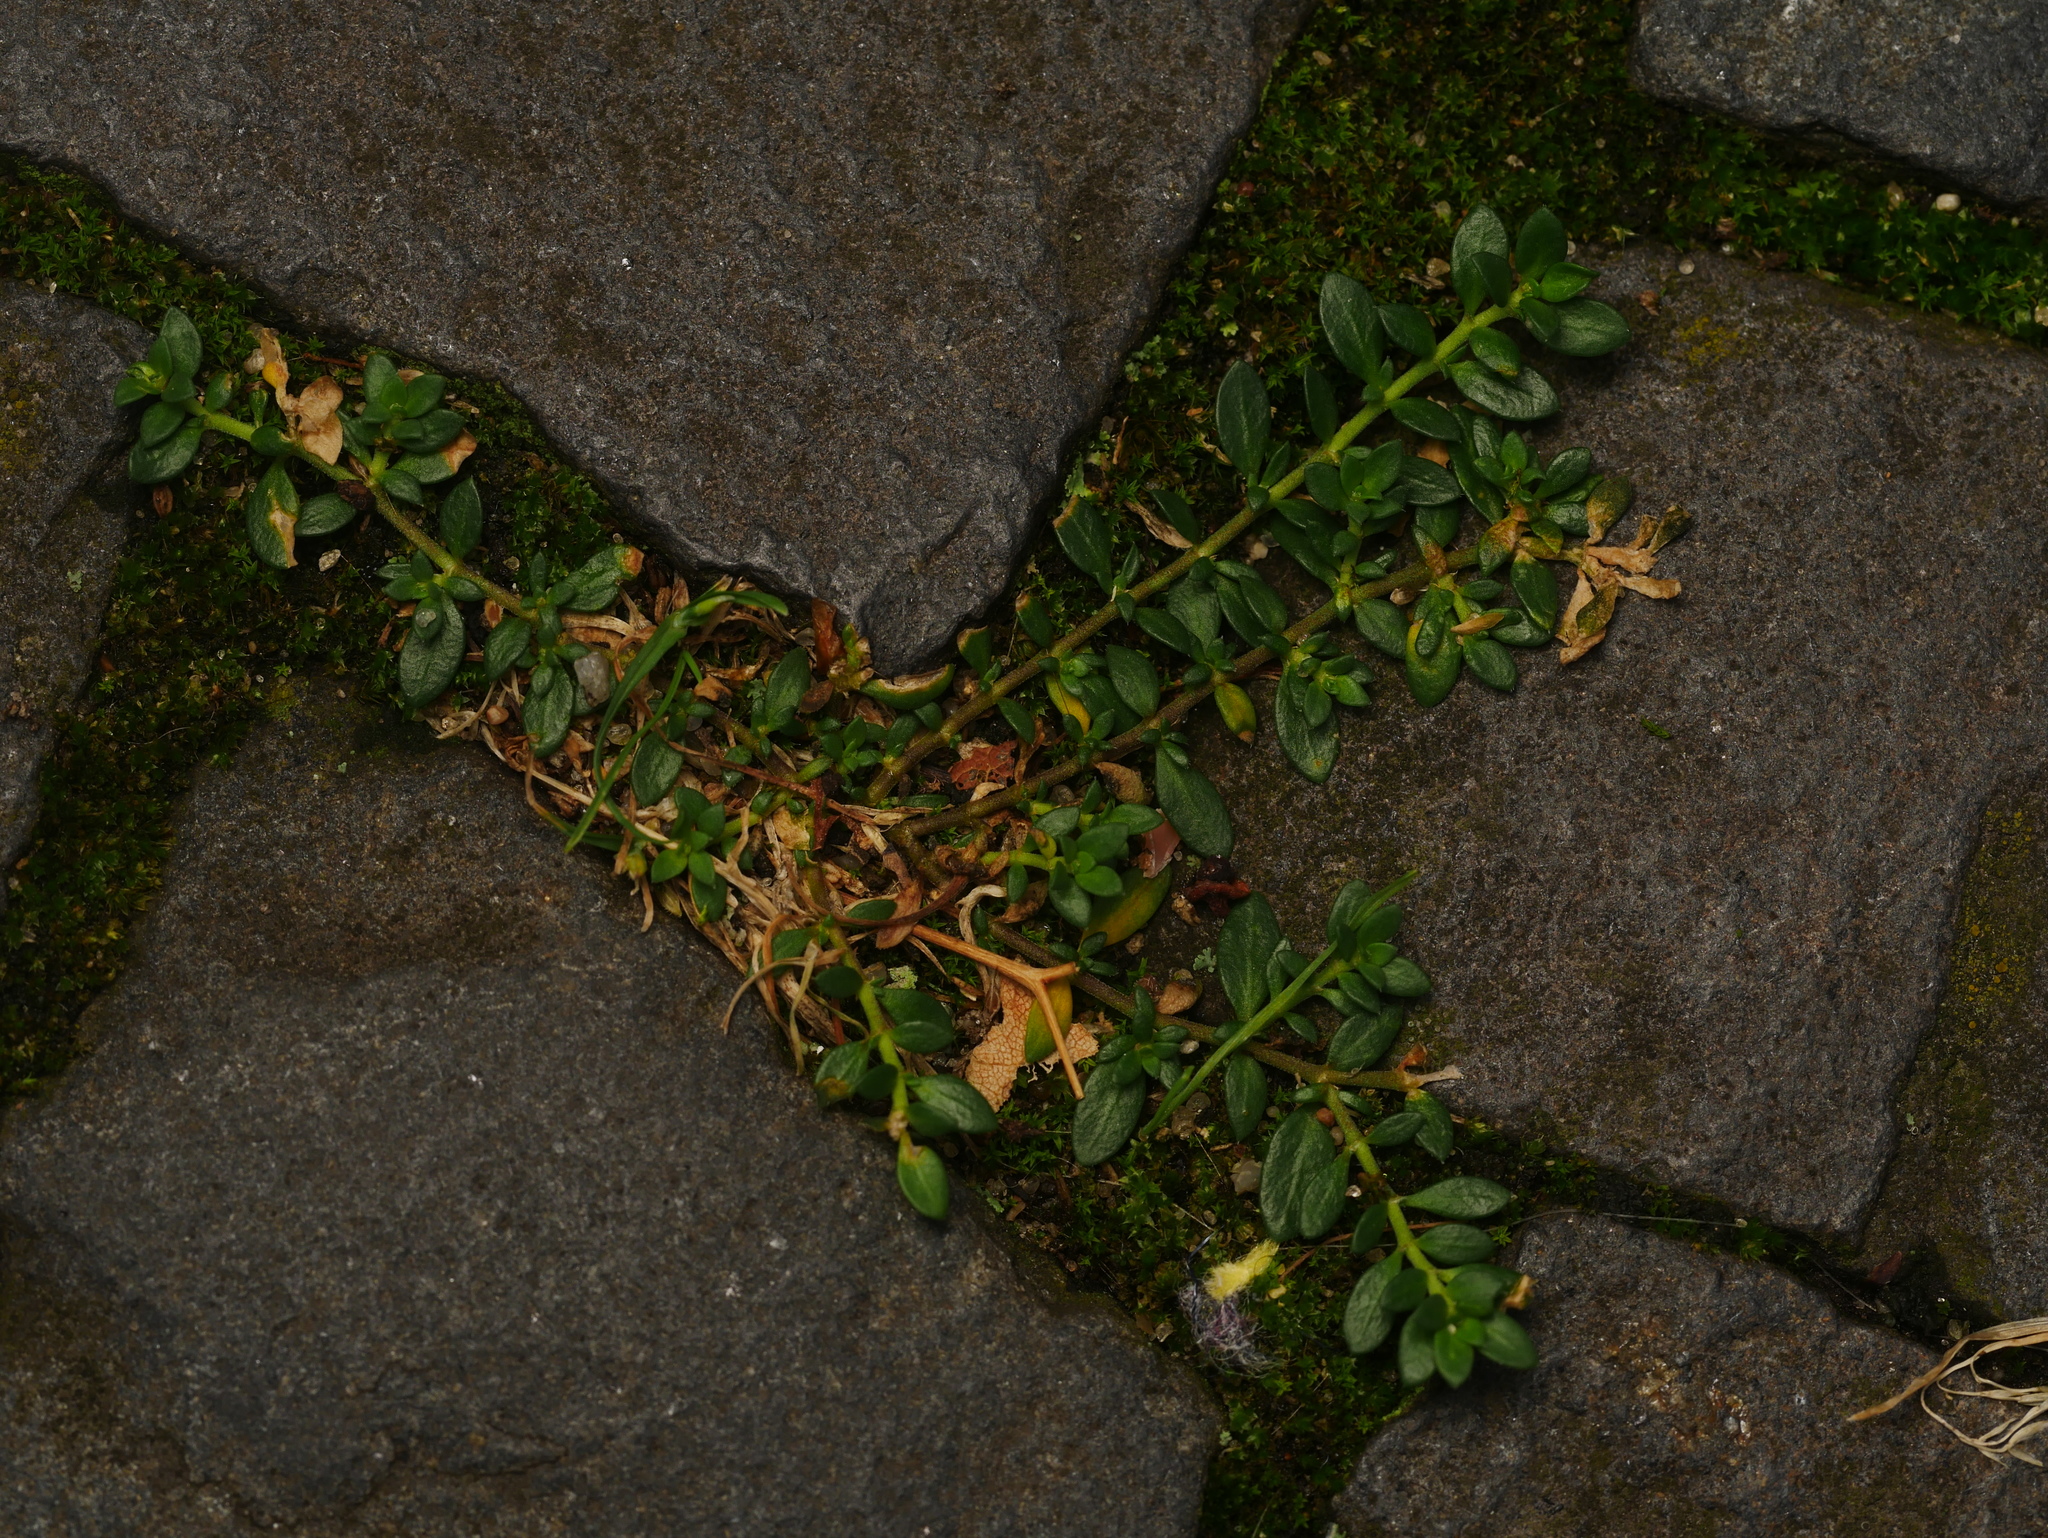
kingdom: Plantae
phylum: Tracheophyta
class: Magnoliopsida
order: Caryophyllales
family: Caryophyllaceae
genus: Herniaria
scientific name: Herniaria glabra
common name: Smooth rupturewort
